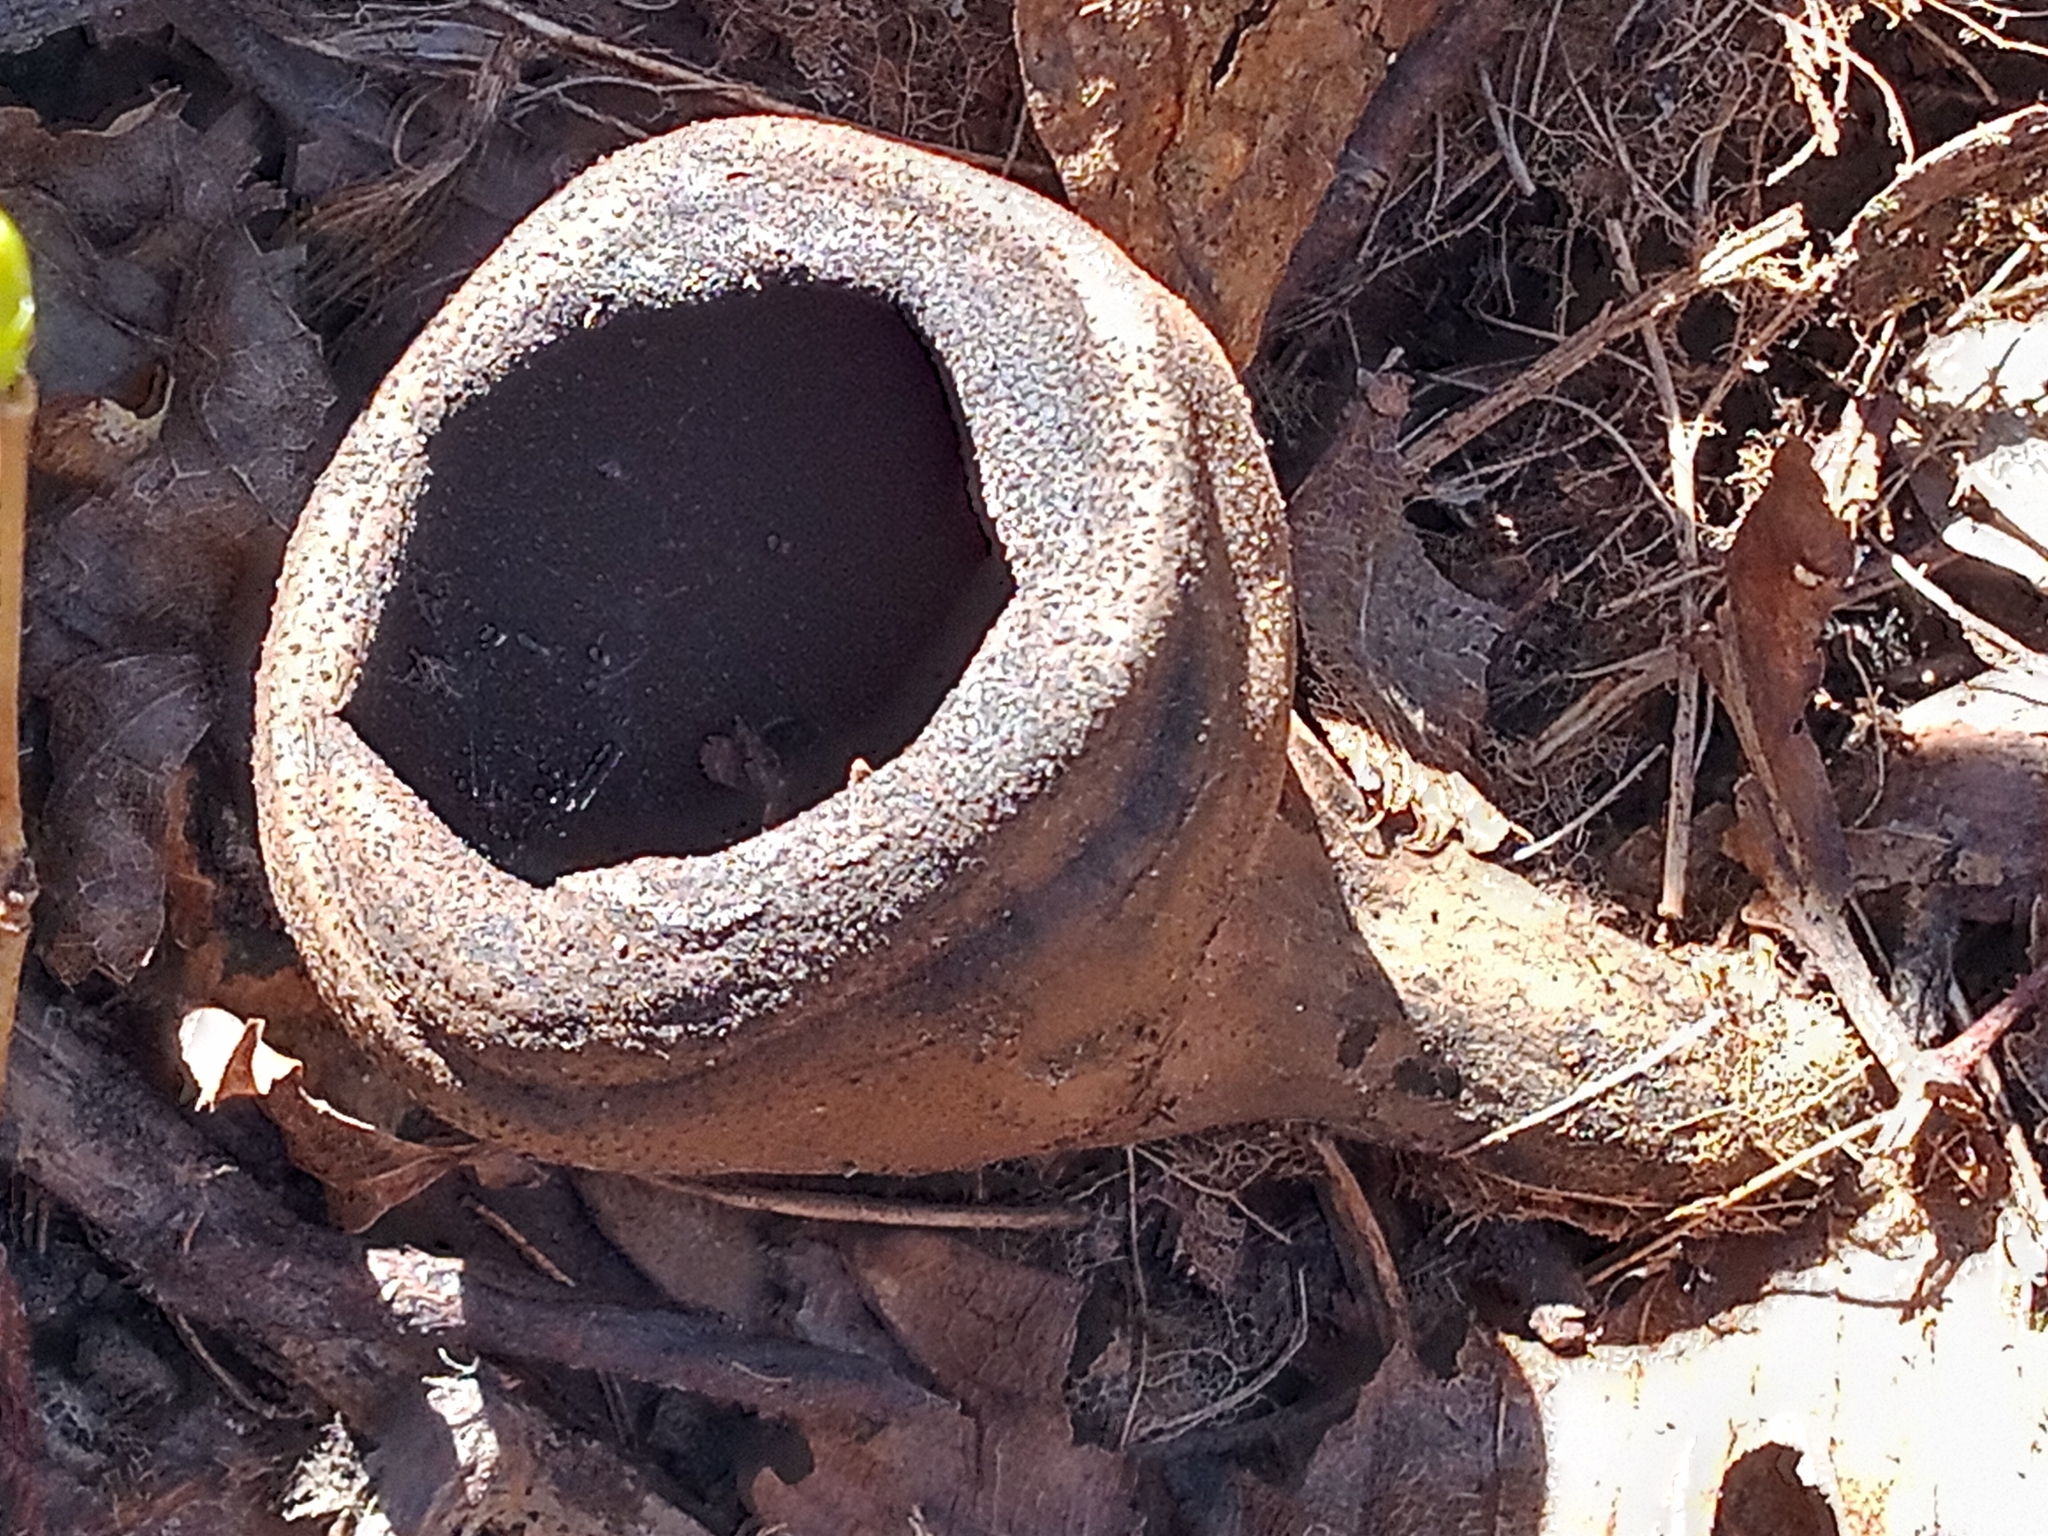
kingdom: Fungi
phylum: Ascomycota
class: Pezizomycetes
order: Pezizales
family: Sarcosomataceae
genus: Urnula
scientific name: Urnula craterium
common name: Devil's urn
